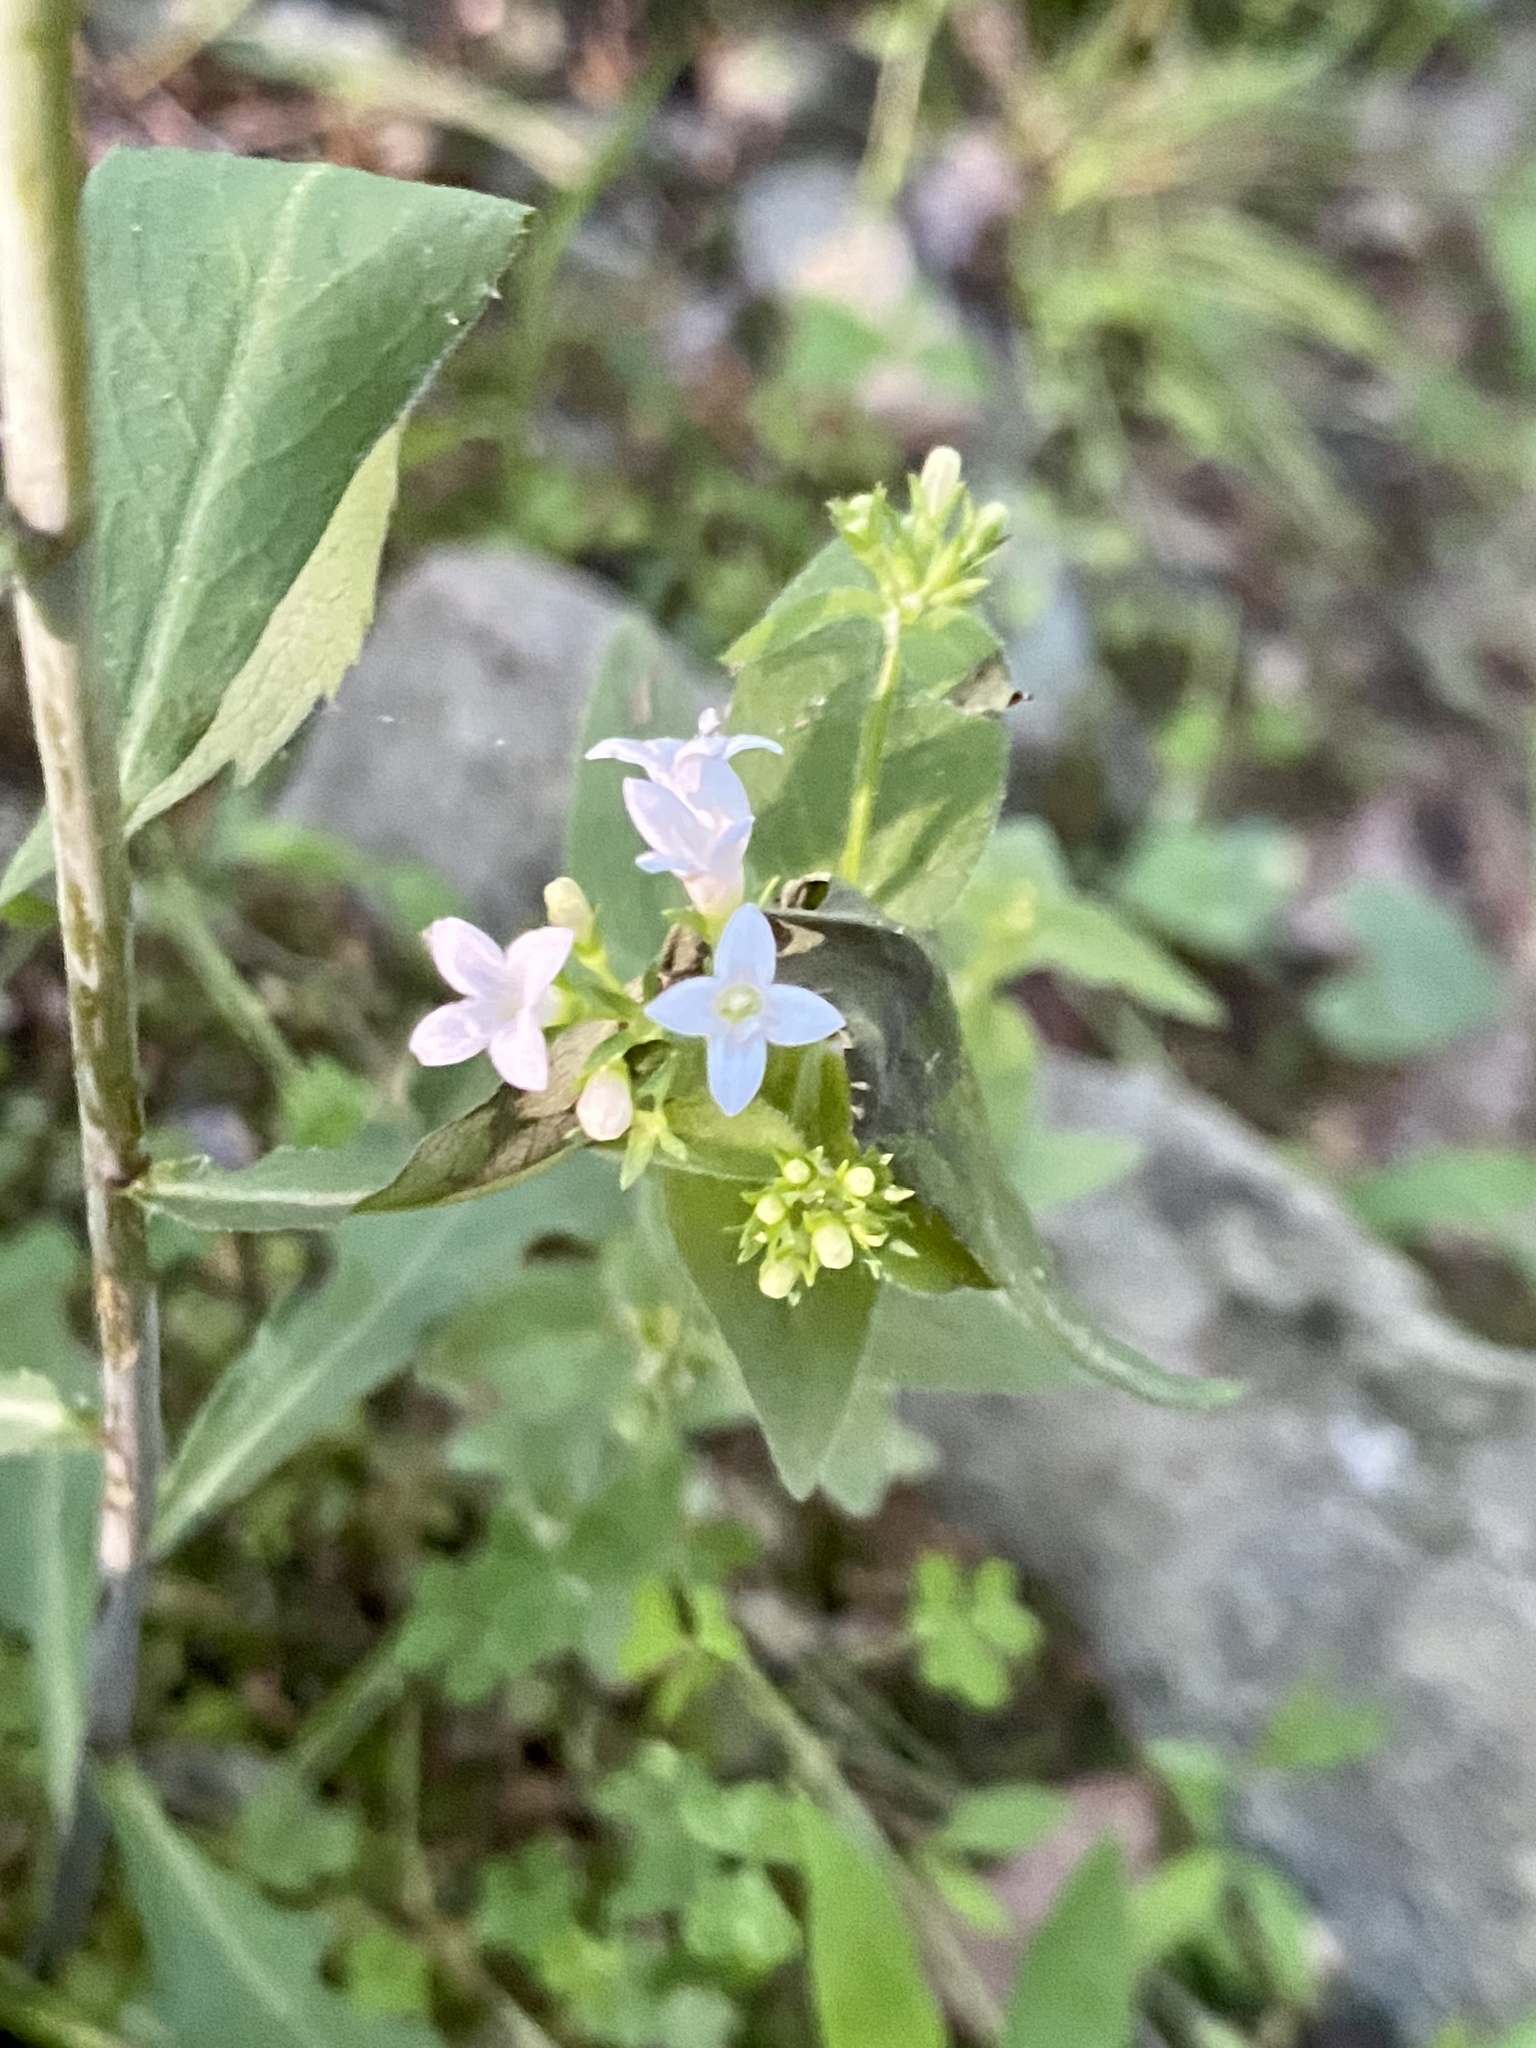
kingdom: Plantae
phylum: Tracheophyta
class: Magnoliopsida
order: Gentianales
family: Rubiaceae
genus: Houstonia
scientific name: Houstonia purpurea
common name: Summer bluet
